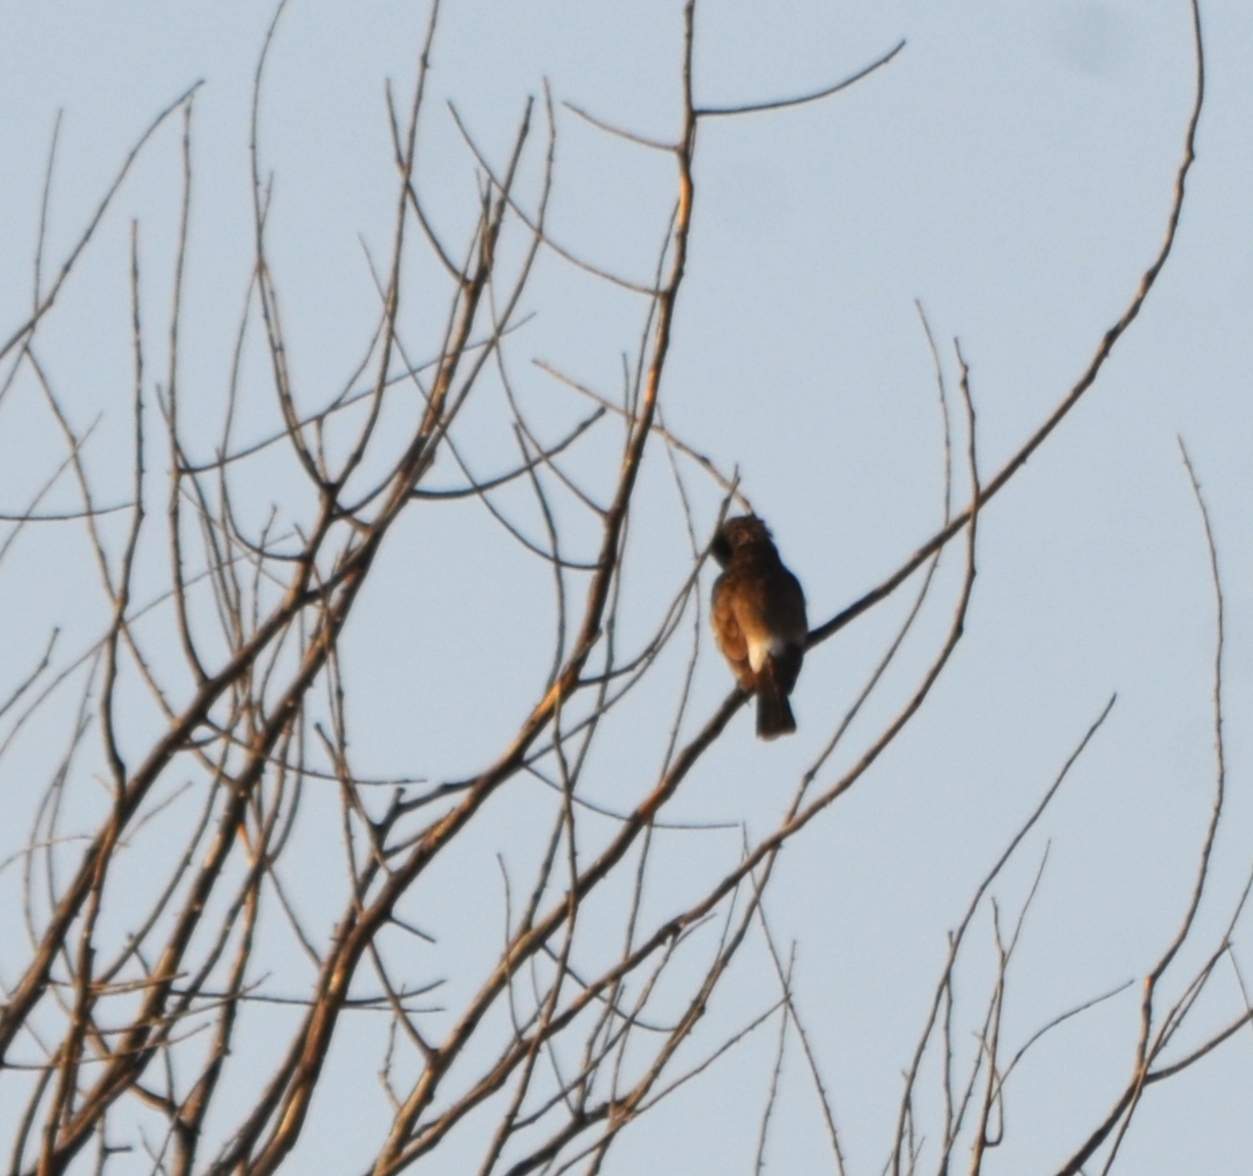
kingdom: Animalia
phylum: Chordata
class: Aves
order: Passeriformes
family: Pycnonotidae
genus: Pycnonotus
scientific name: Pycnonotus cafer
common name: Red-vented bulbul
